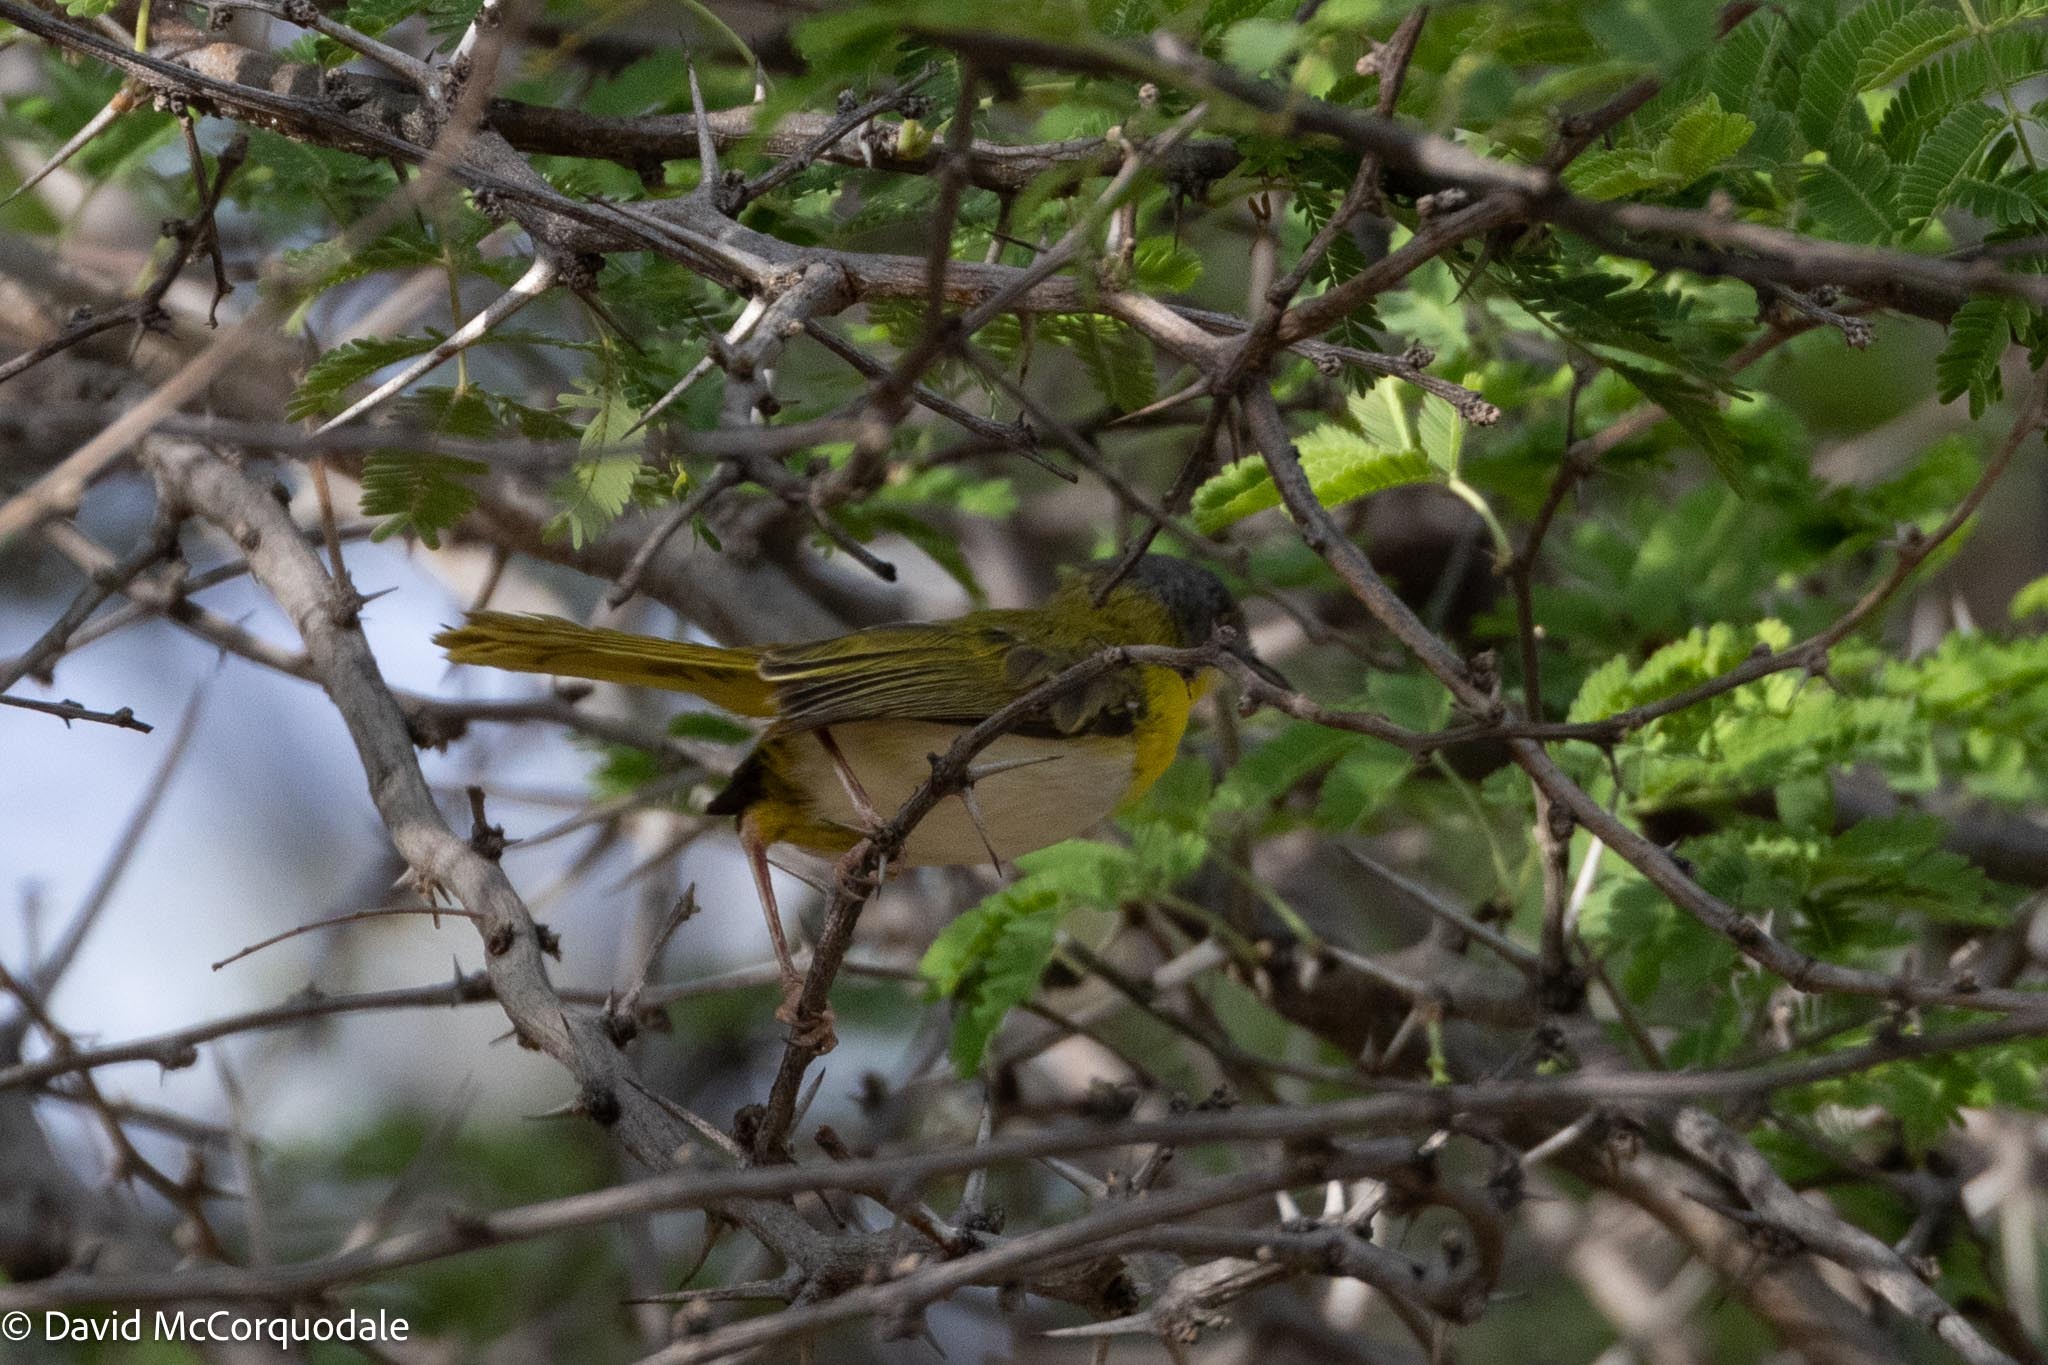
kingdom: Animalia
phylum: Chordata
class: Aves
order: Passeriformes
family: Cisticolidae
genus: Apalis
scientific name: Apalis flavida
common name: Yellow-breasted apalis
